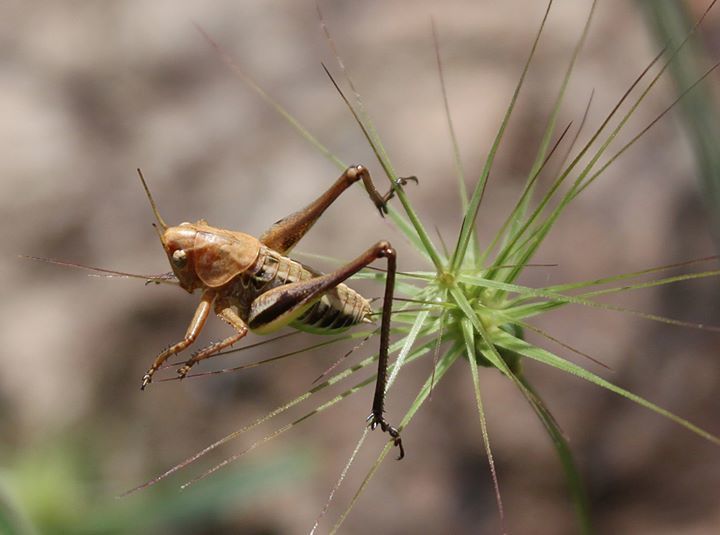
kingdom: Animalia
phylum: Arthropoda
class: Insecta
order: Orthoptera
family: Tettigoniidae
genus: Decticus
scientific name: Decticus albifrons
